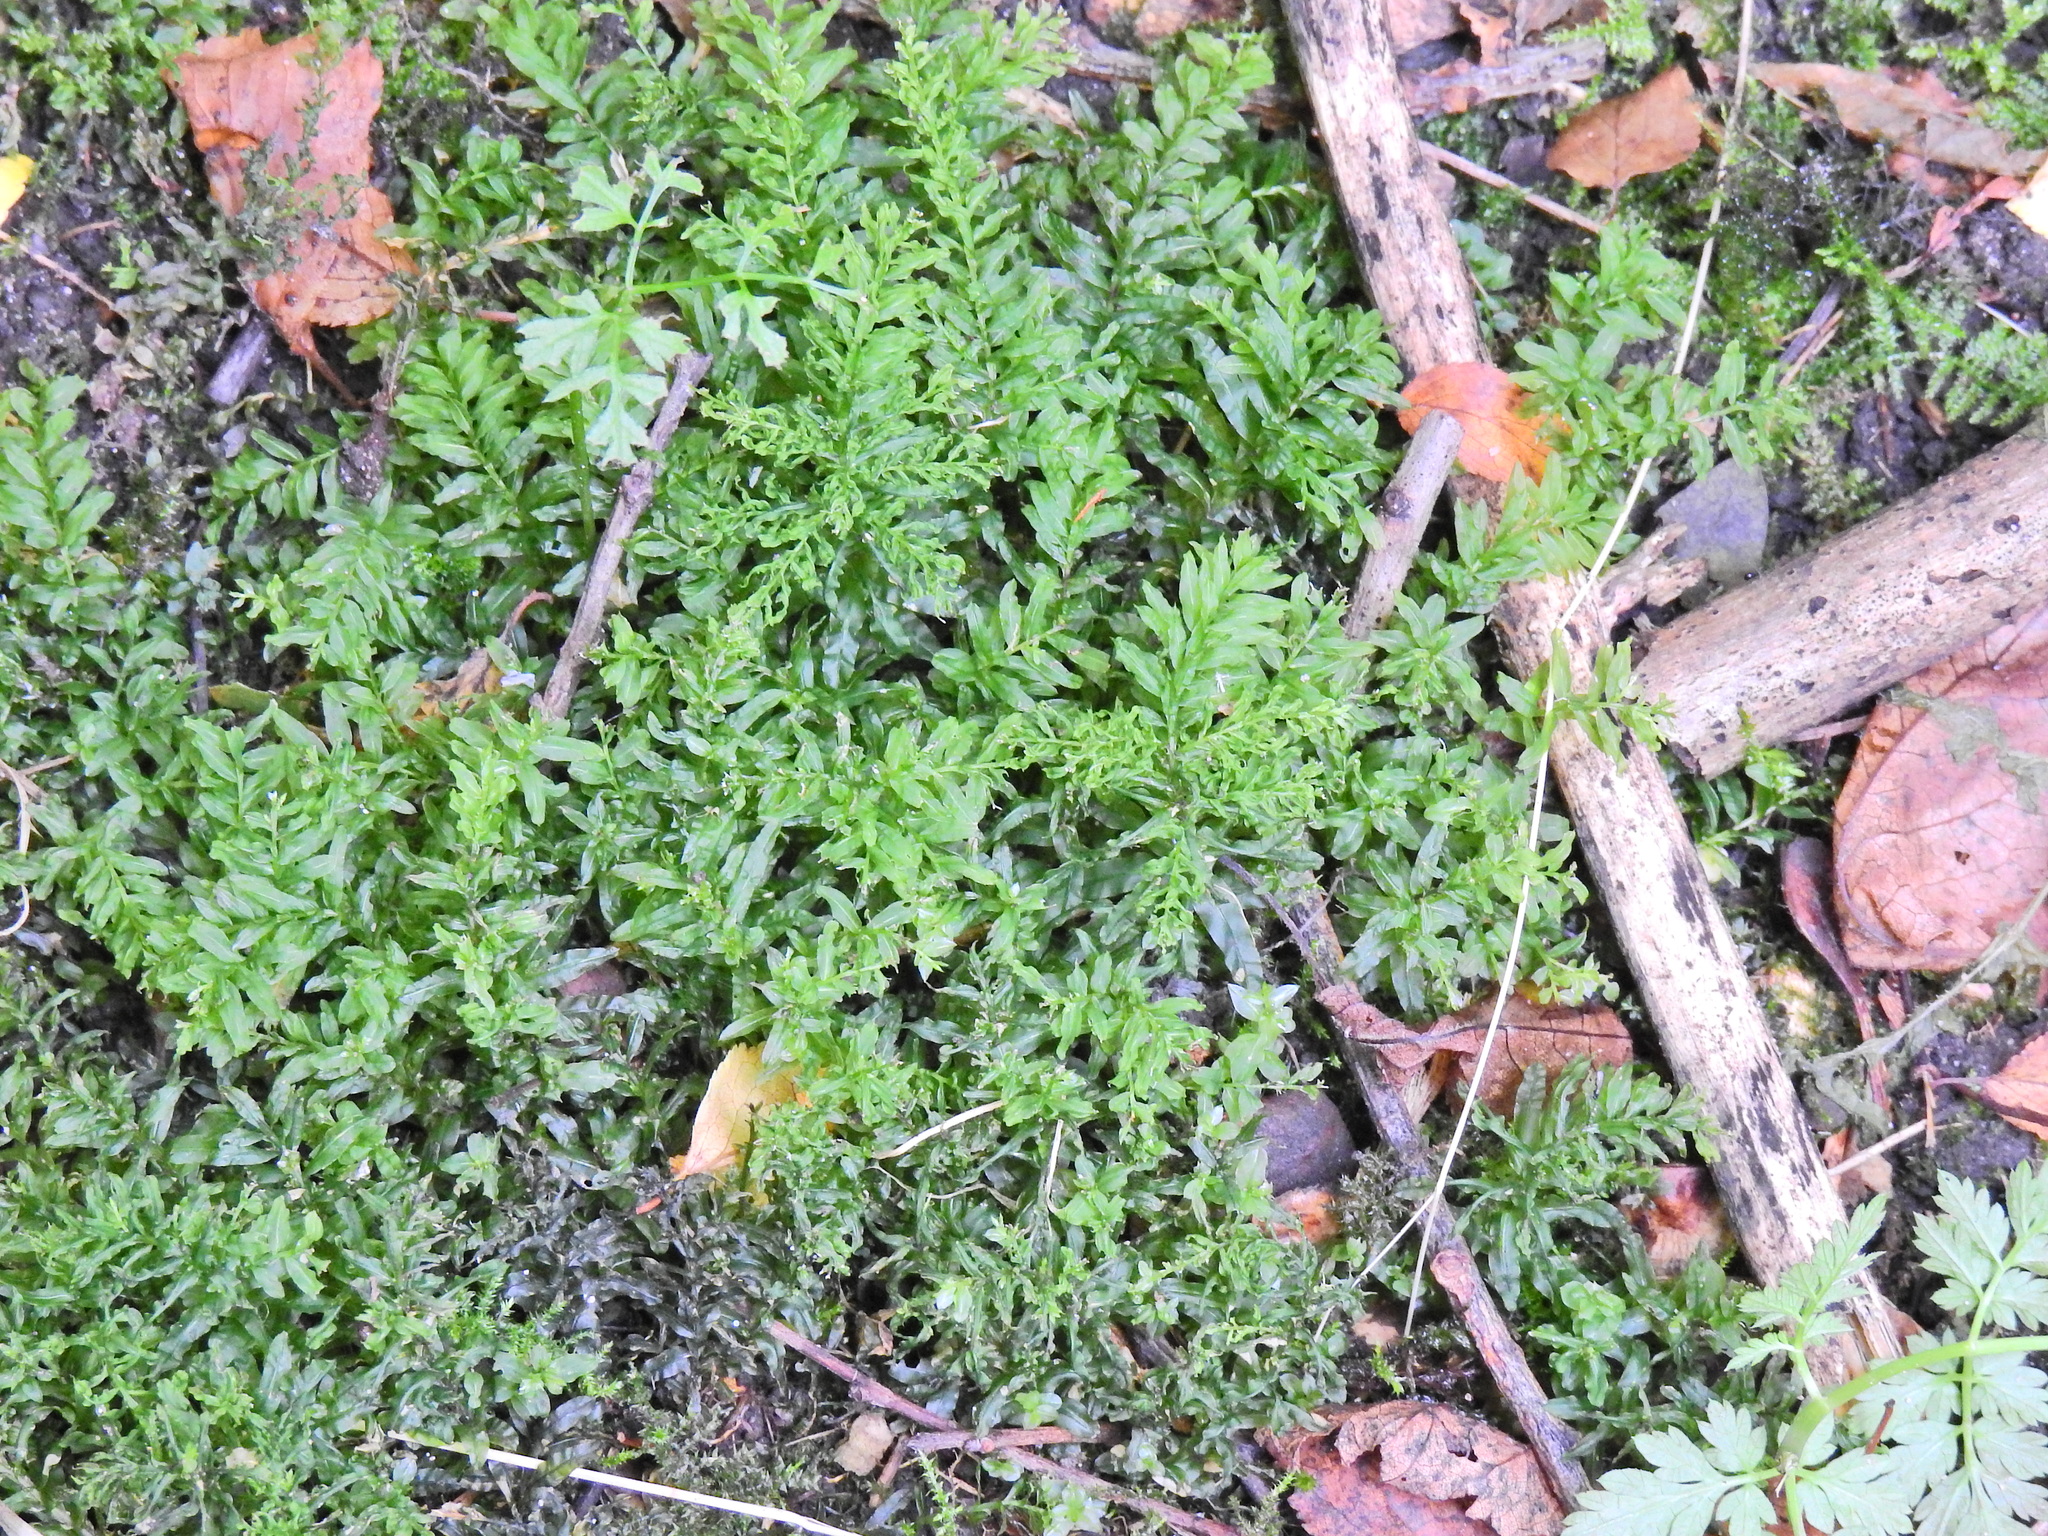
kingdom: Plantae
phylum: Bryophyta
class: Bryopsida
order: Bryales
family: Mniaceae
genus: Plagiomnium
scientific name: Plagiomnium undulatum
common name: Hart's-tongue thyme-moss
